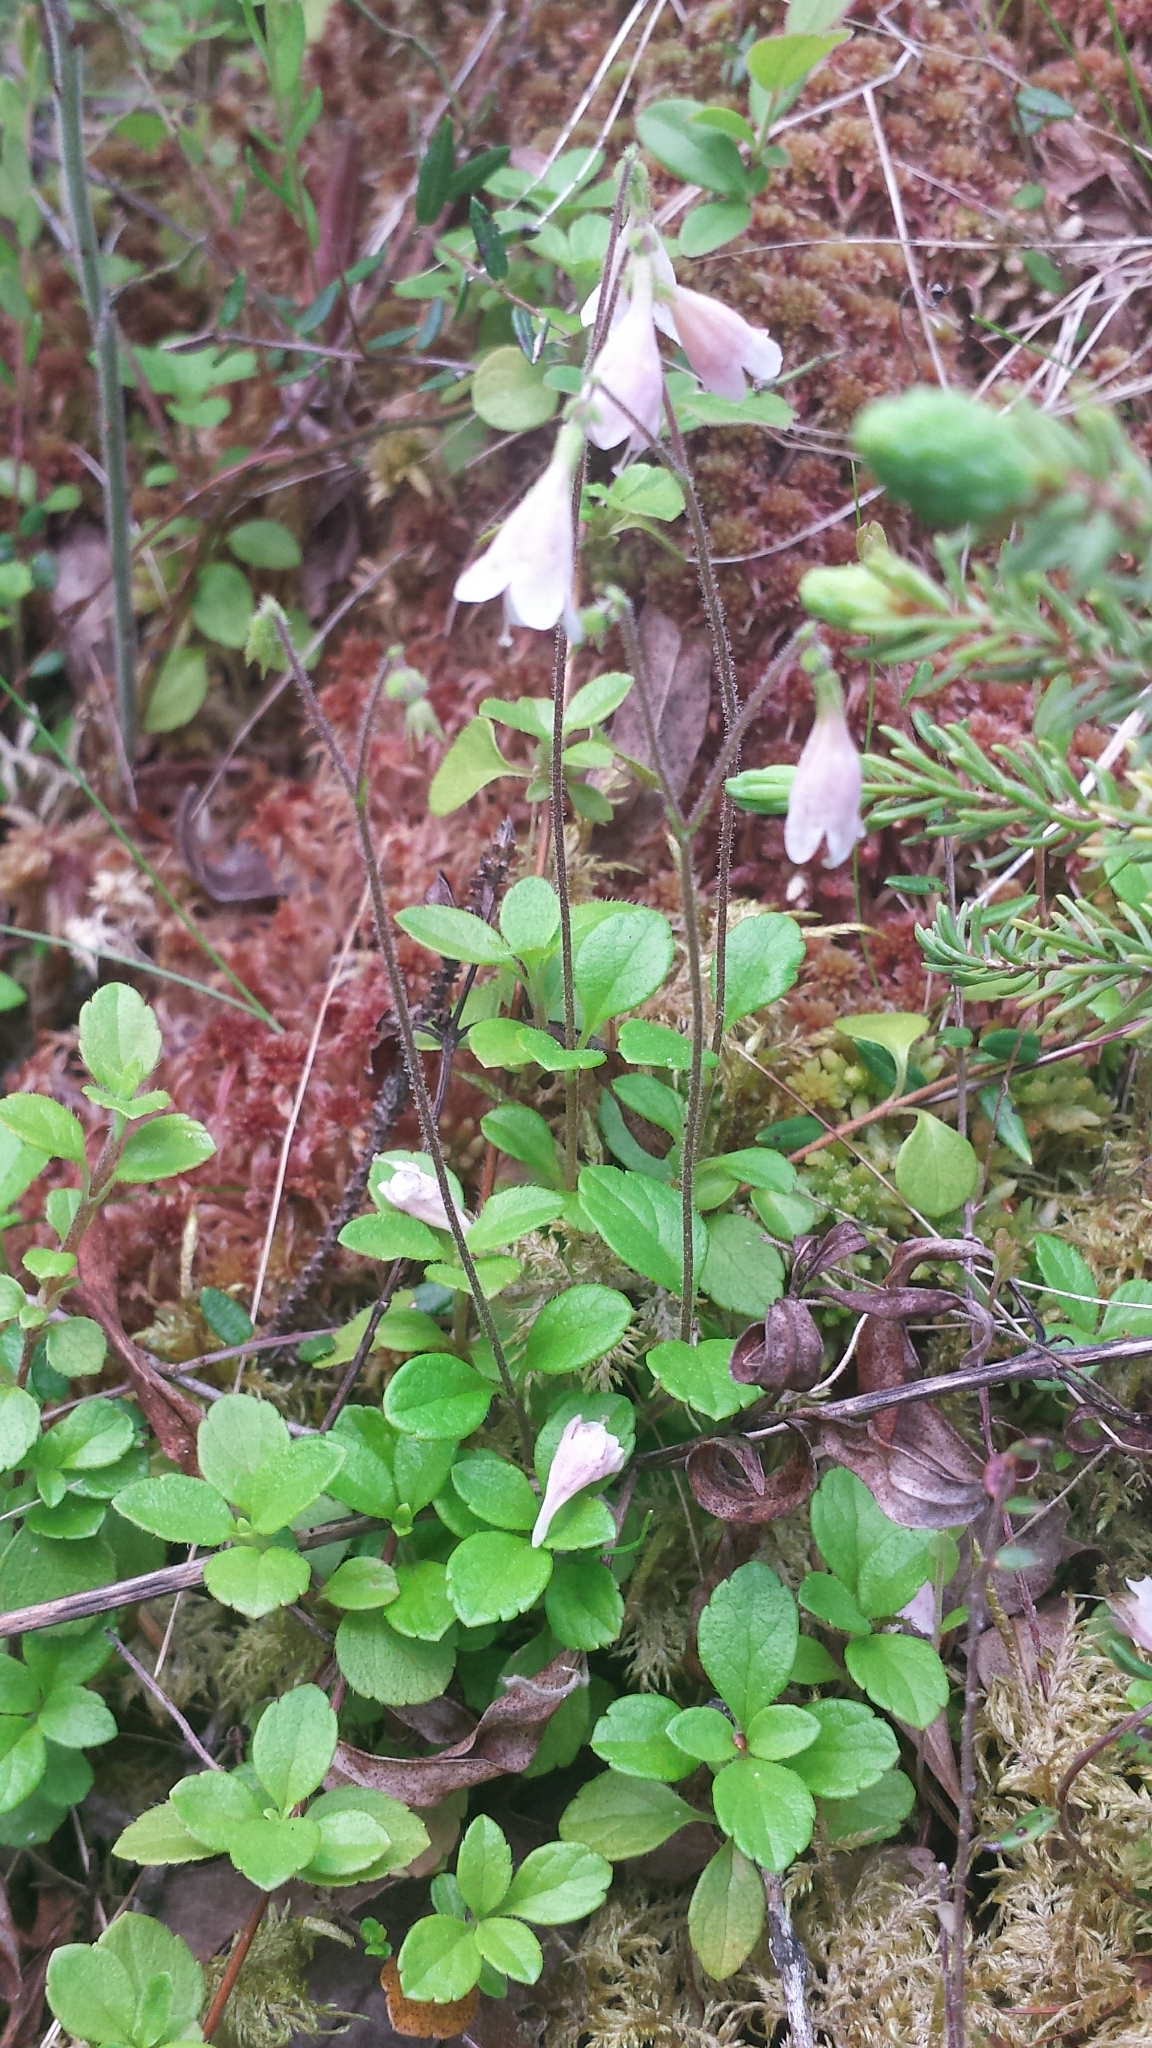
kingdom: Plantae
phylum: Tracheophyta
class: Magnoliopsida
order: Dipsacales
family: Caprifoliaceae
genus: Linnaea
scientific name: Linnaea borealis
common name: Twinflower
